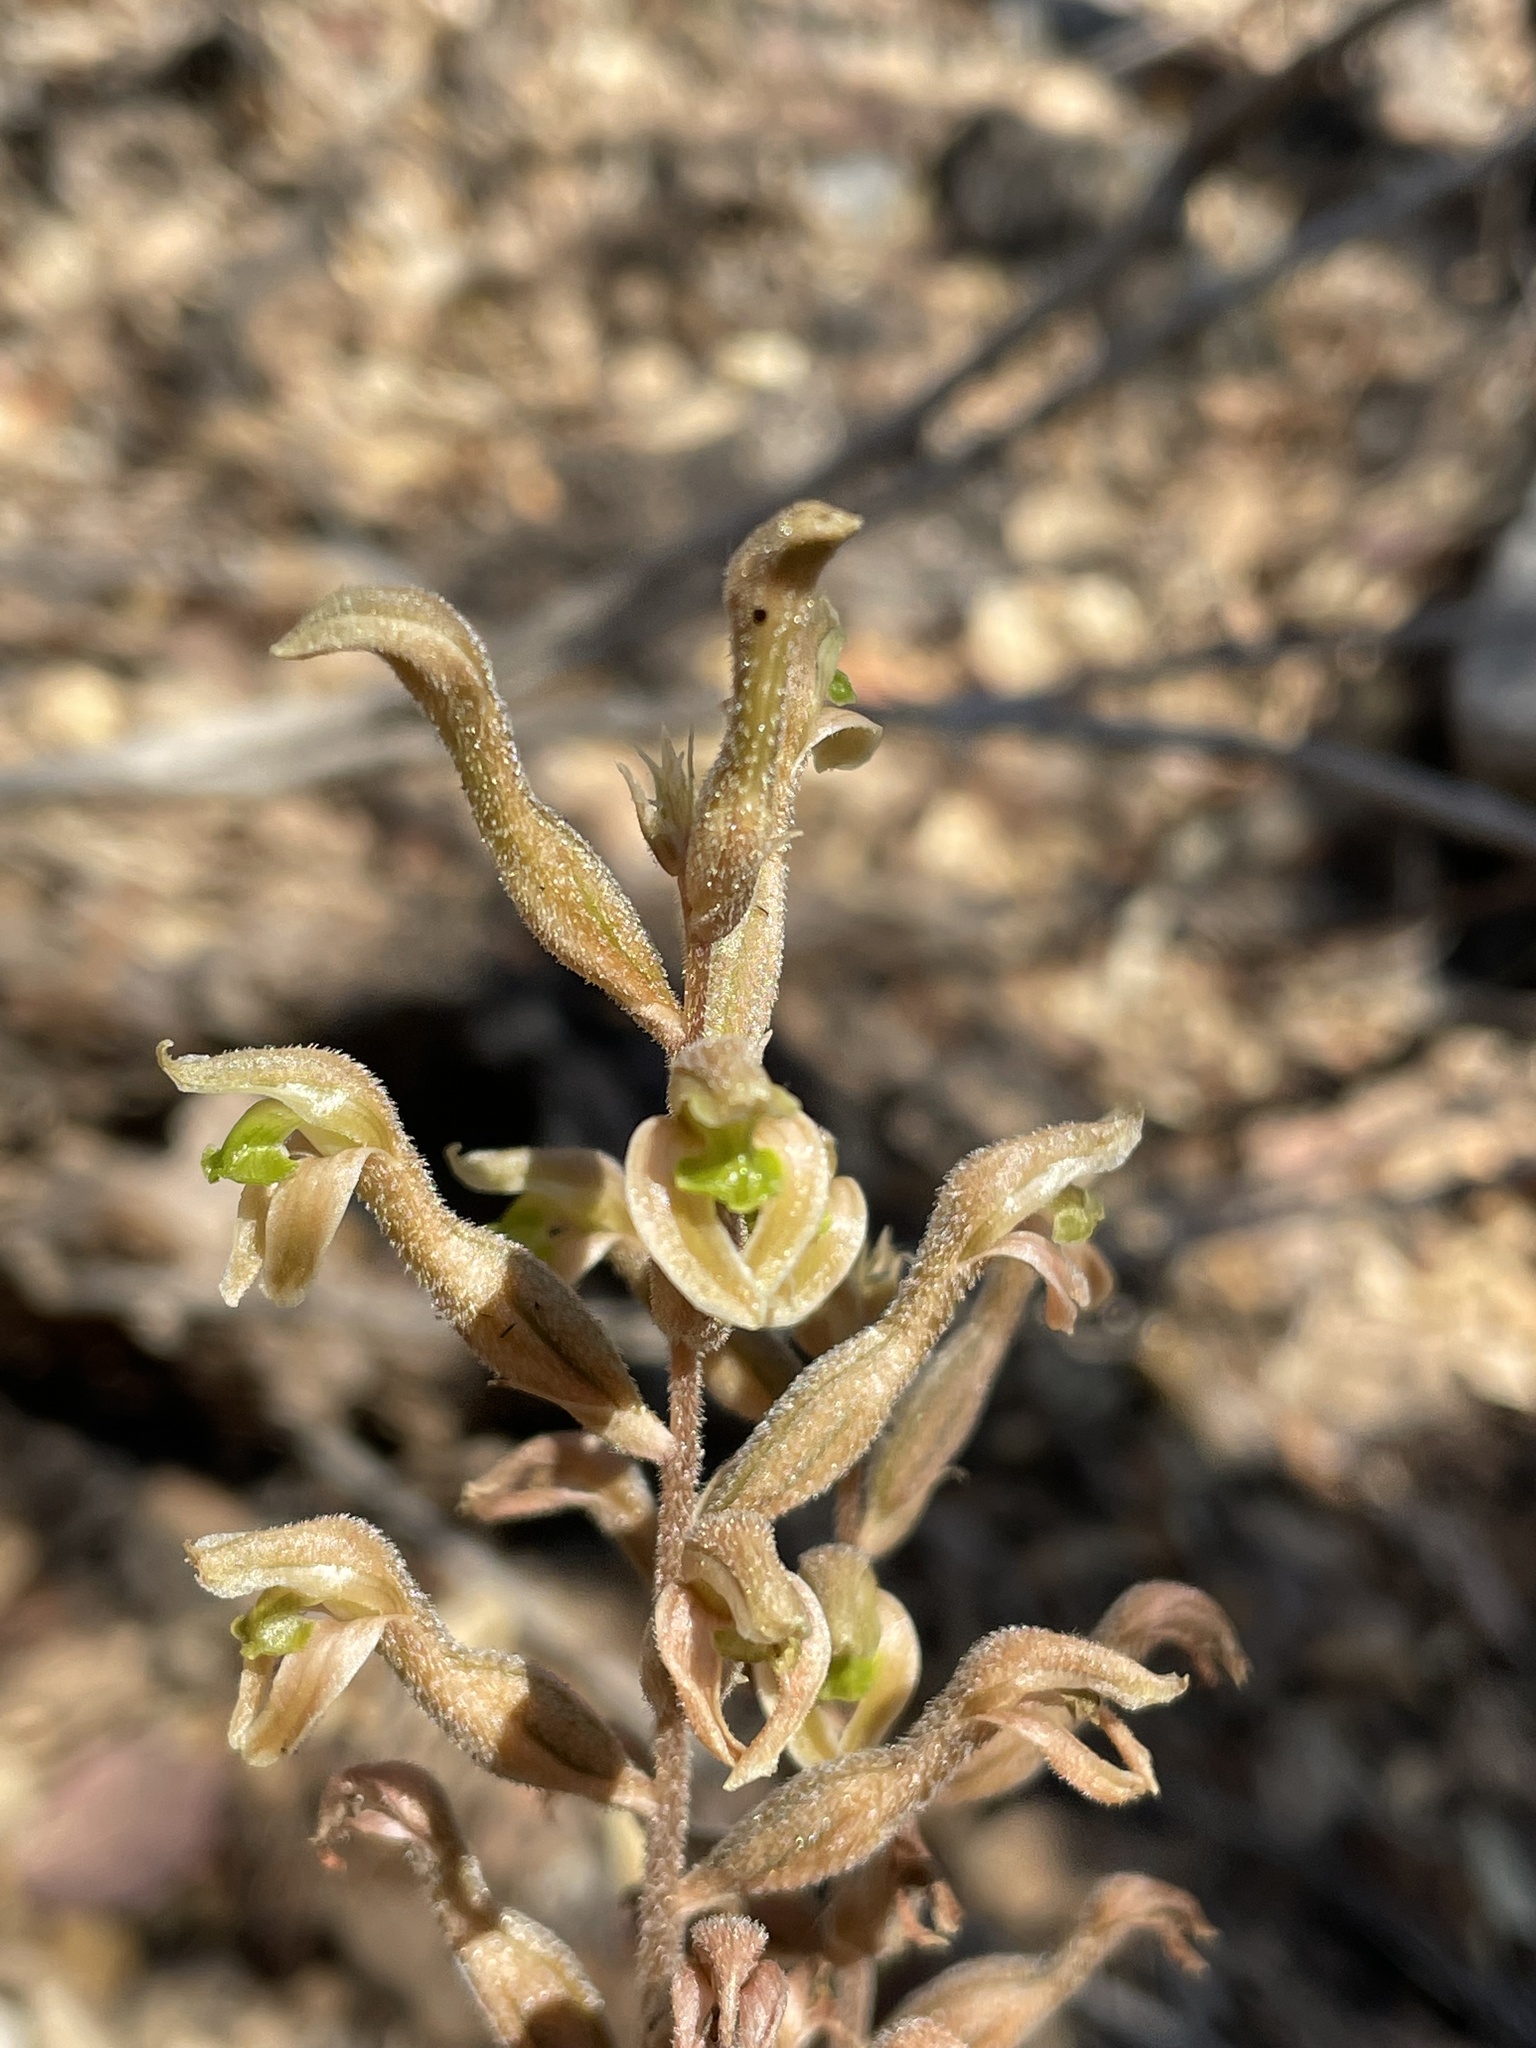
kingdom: Plantae
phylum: Tracheophyta
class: Liliopsida
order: Asparagales
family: Orchidaceae
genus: Sarcoglottis
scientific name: Sarcoglottis assurgens
